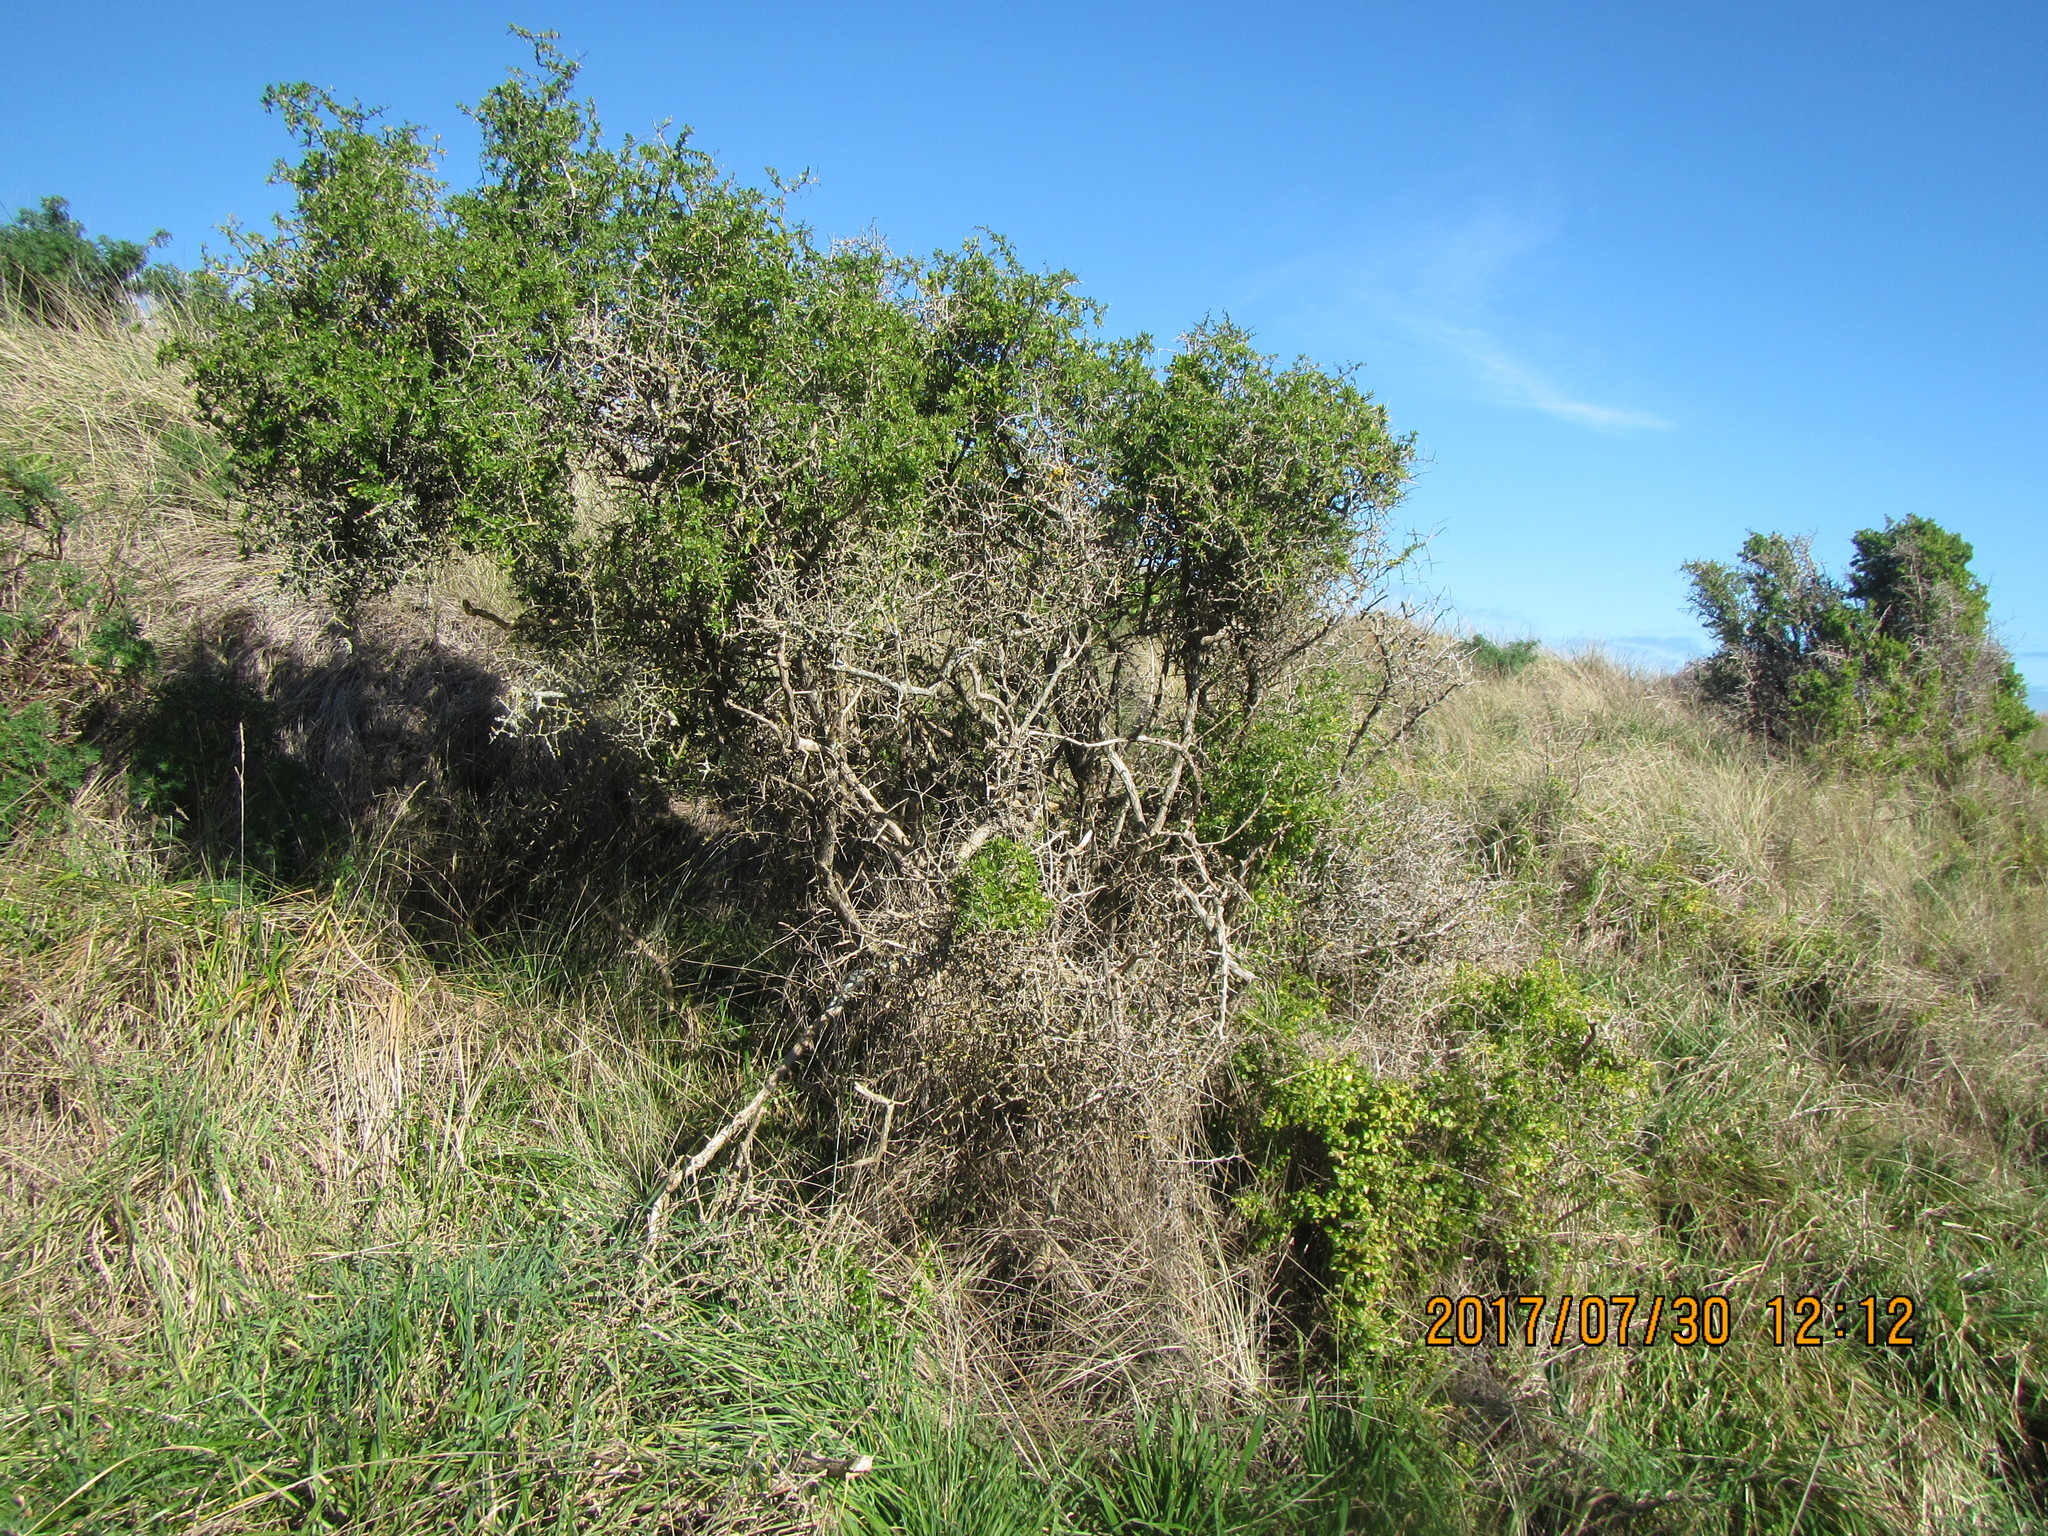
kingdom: Plantae
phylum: Tracheophyta
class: Magnoliopsida
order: Solanales
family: Solanaceae
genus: Lycium
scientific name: Lycium ferocissimum
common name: African boxthorn
